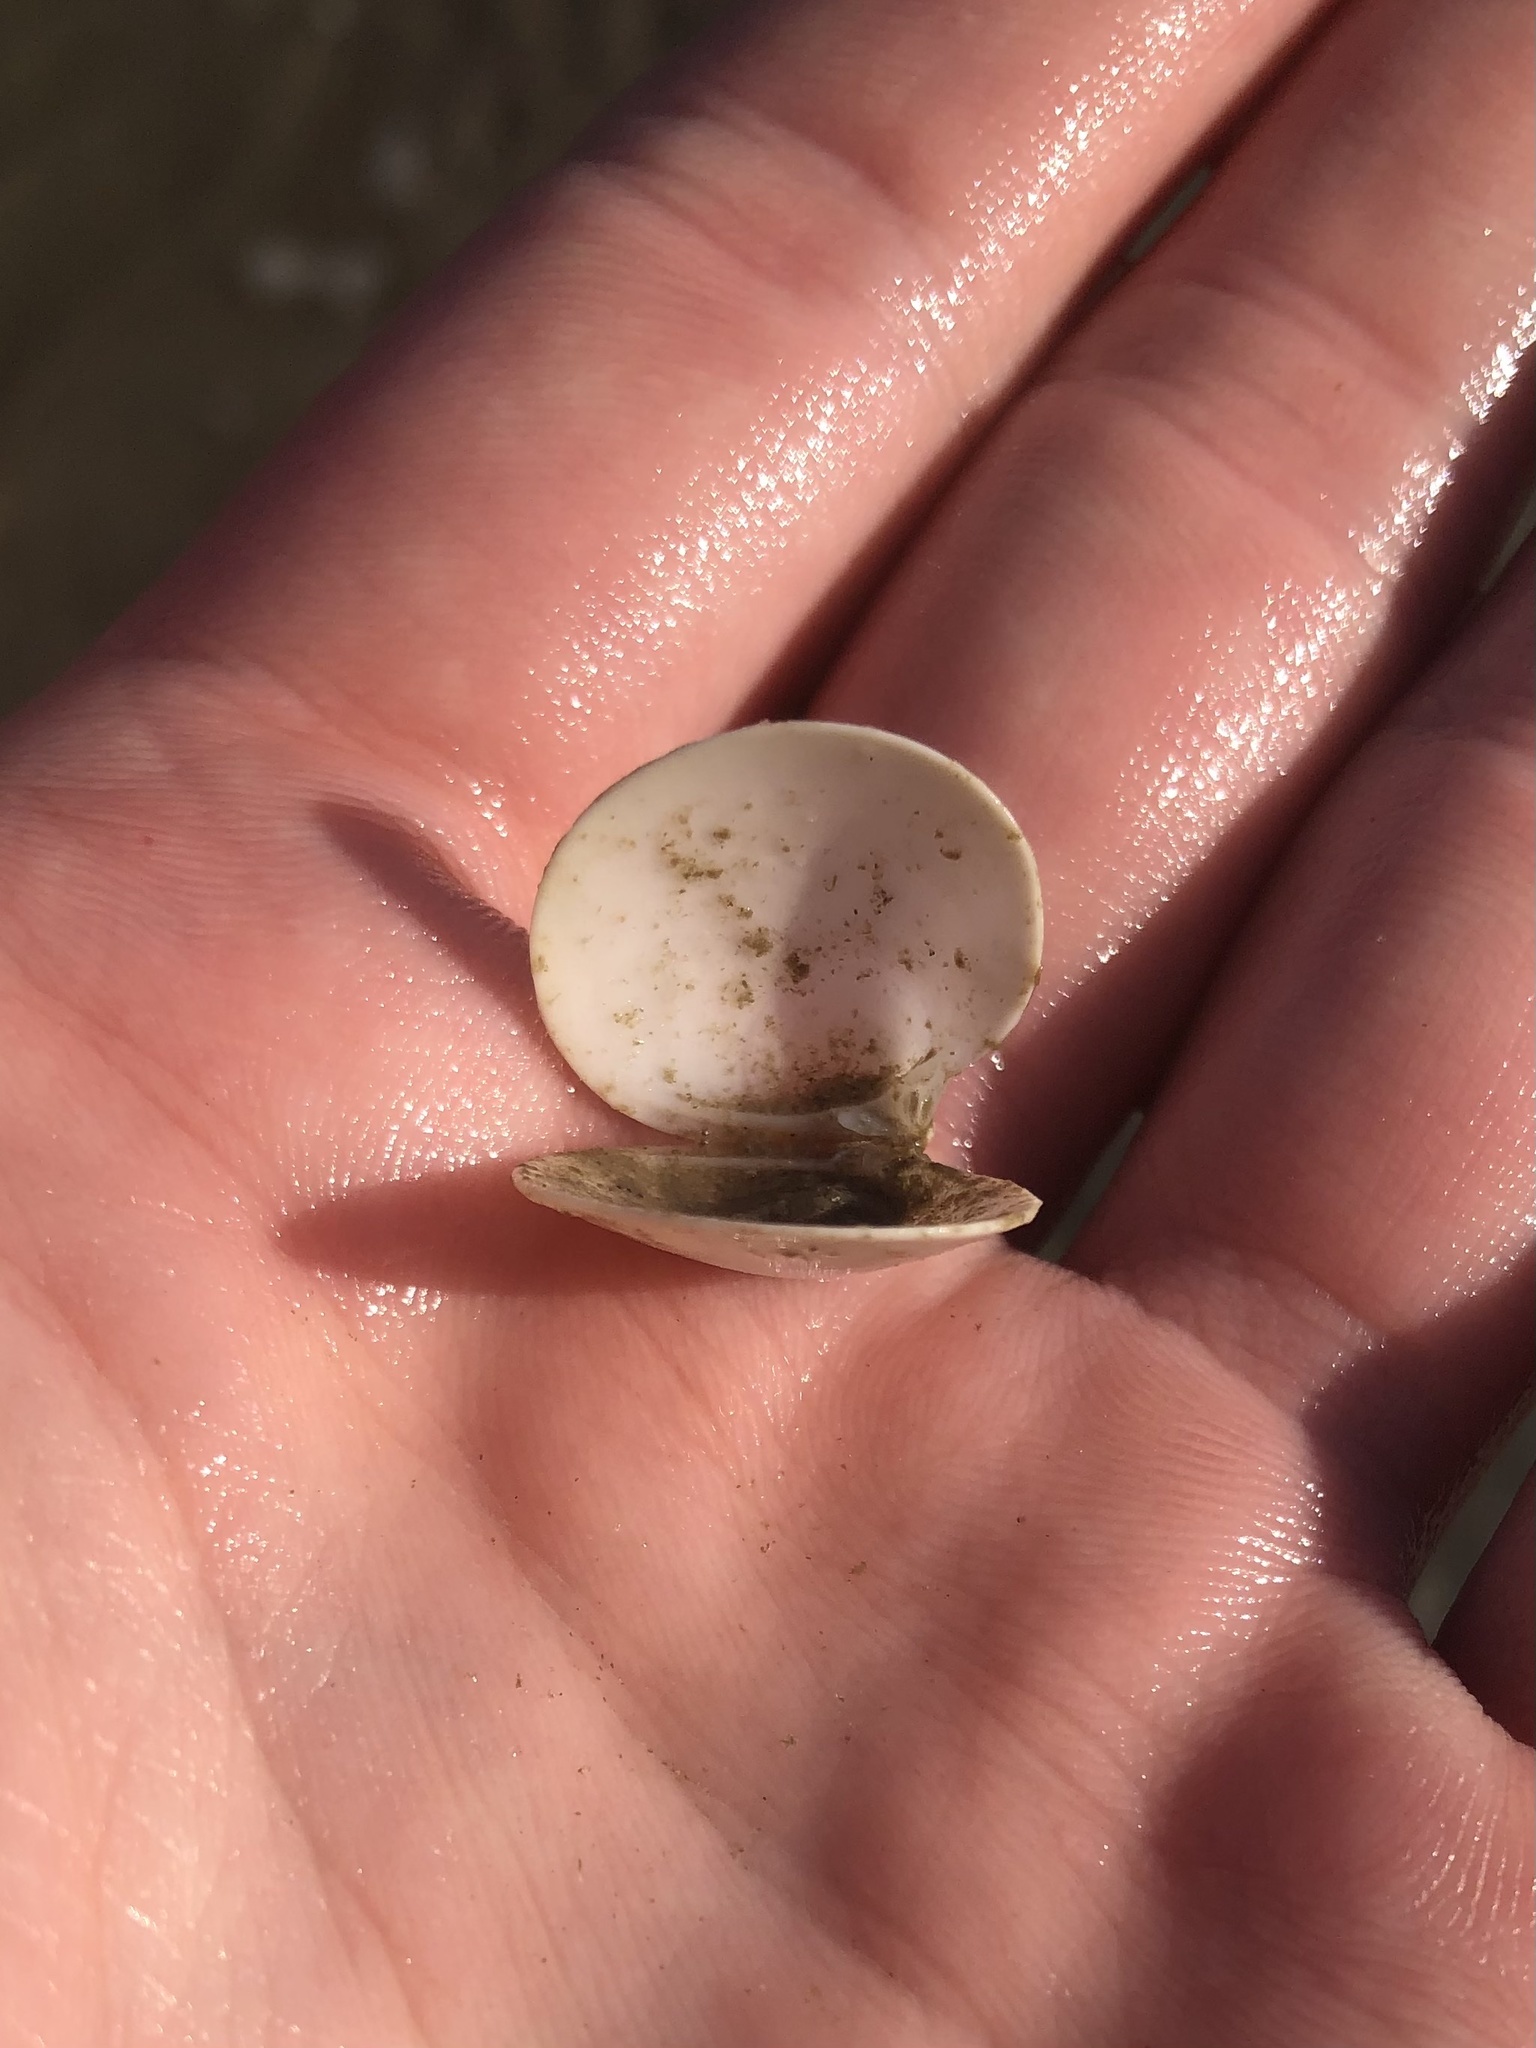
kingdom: Animalia
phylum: Mollusca
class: Bivalvia
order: Venerida
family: Veneridae
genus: Dosinia
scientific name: Dosinia discus
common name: Disk dosinia
